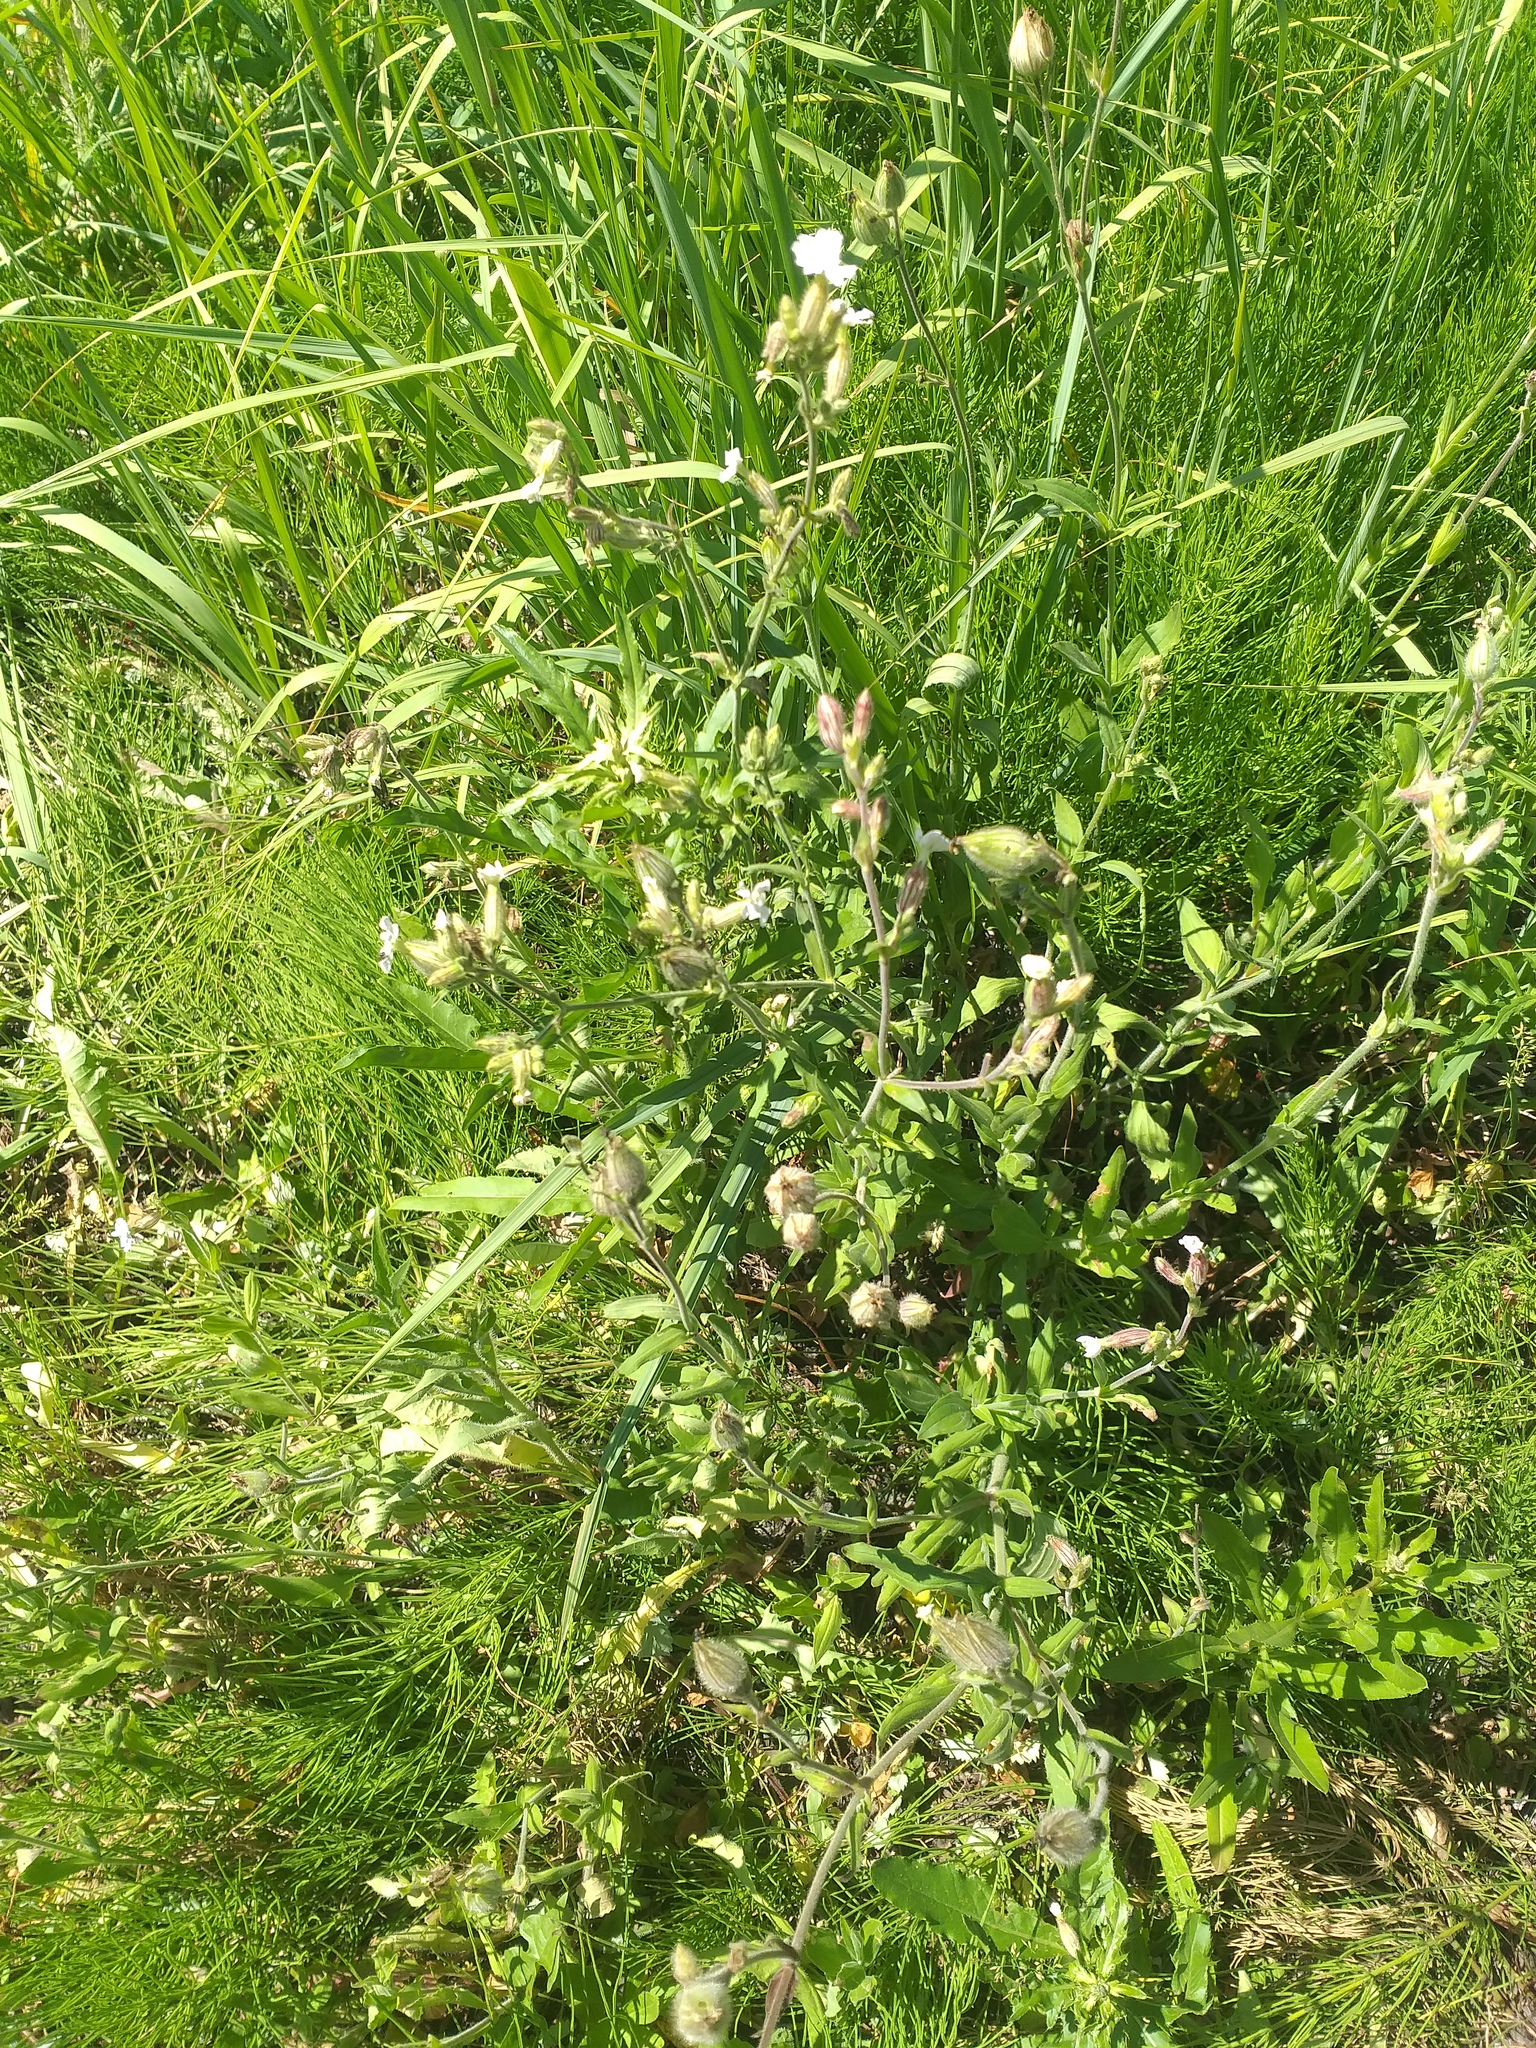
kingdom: Plantae
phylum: Tracheophyta
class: Magnoliopsida
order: Caryophyllales
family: Caryophyllaceae
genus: Silene
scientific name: Silene latifolia
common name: White campion
